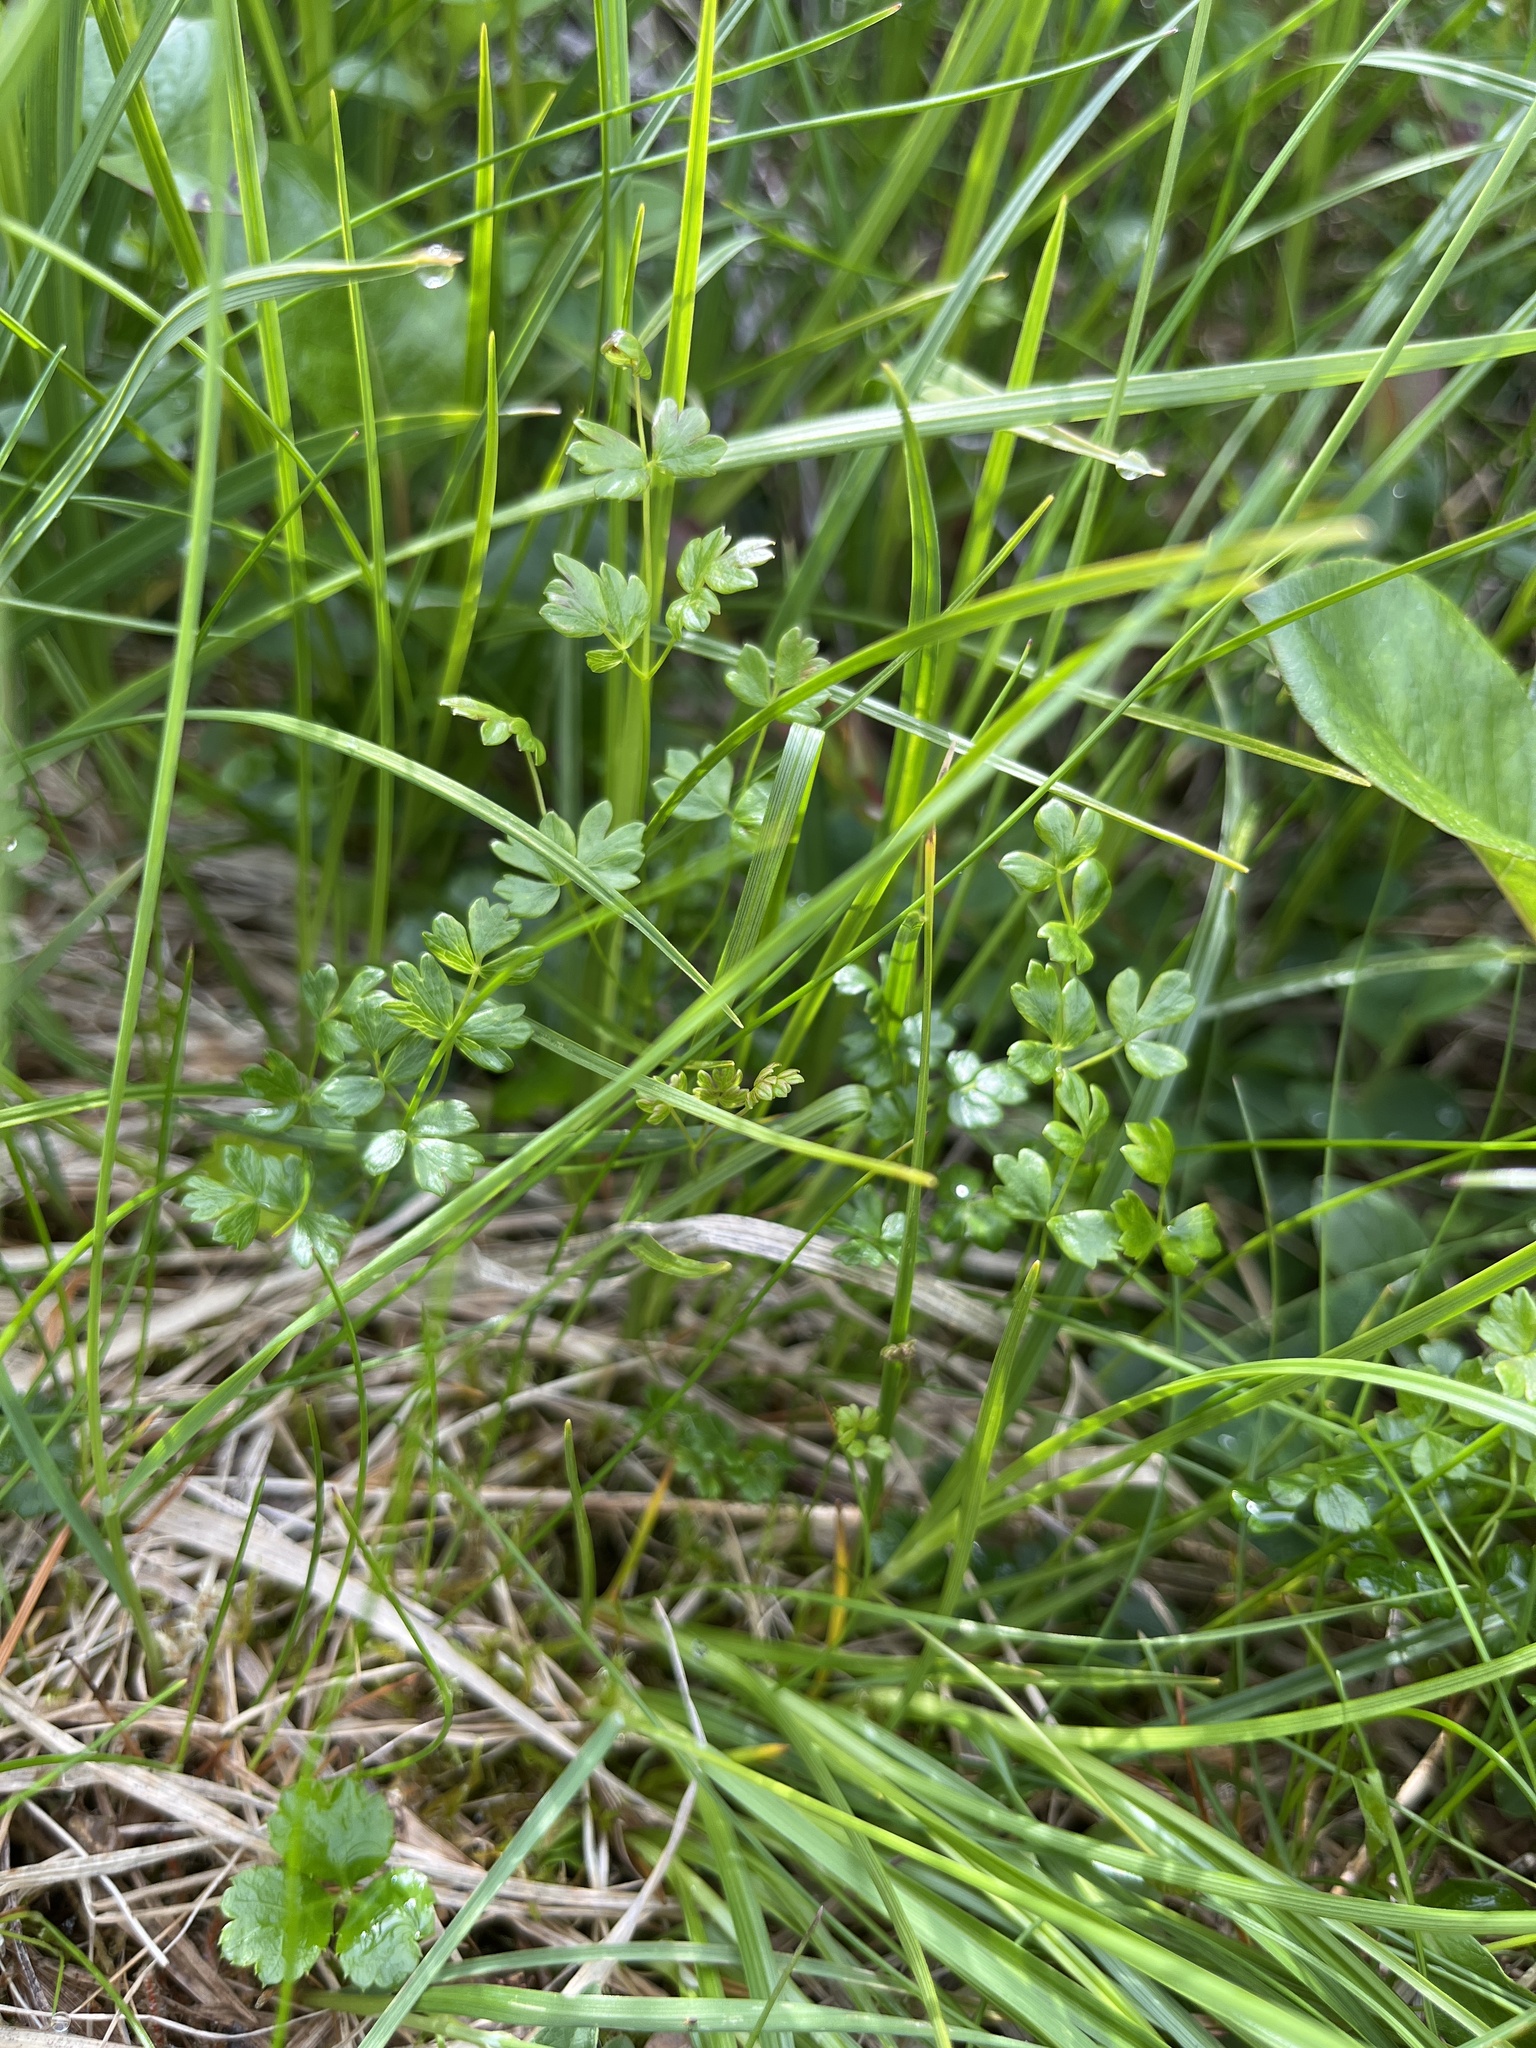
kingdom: Plantae
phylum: Tracheophyta
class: Magnoliopsida
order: Ranunculales
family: Ranunculaceae
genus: Thalictrum
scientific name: Thalictrum alpinum
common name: Alpine meadow-rue
